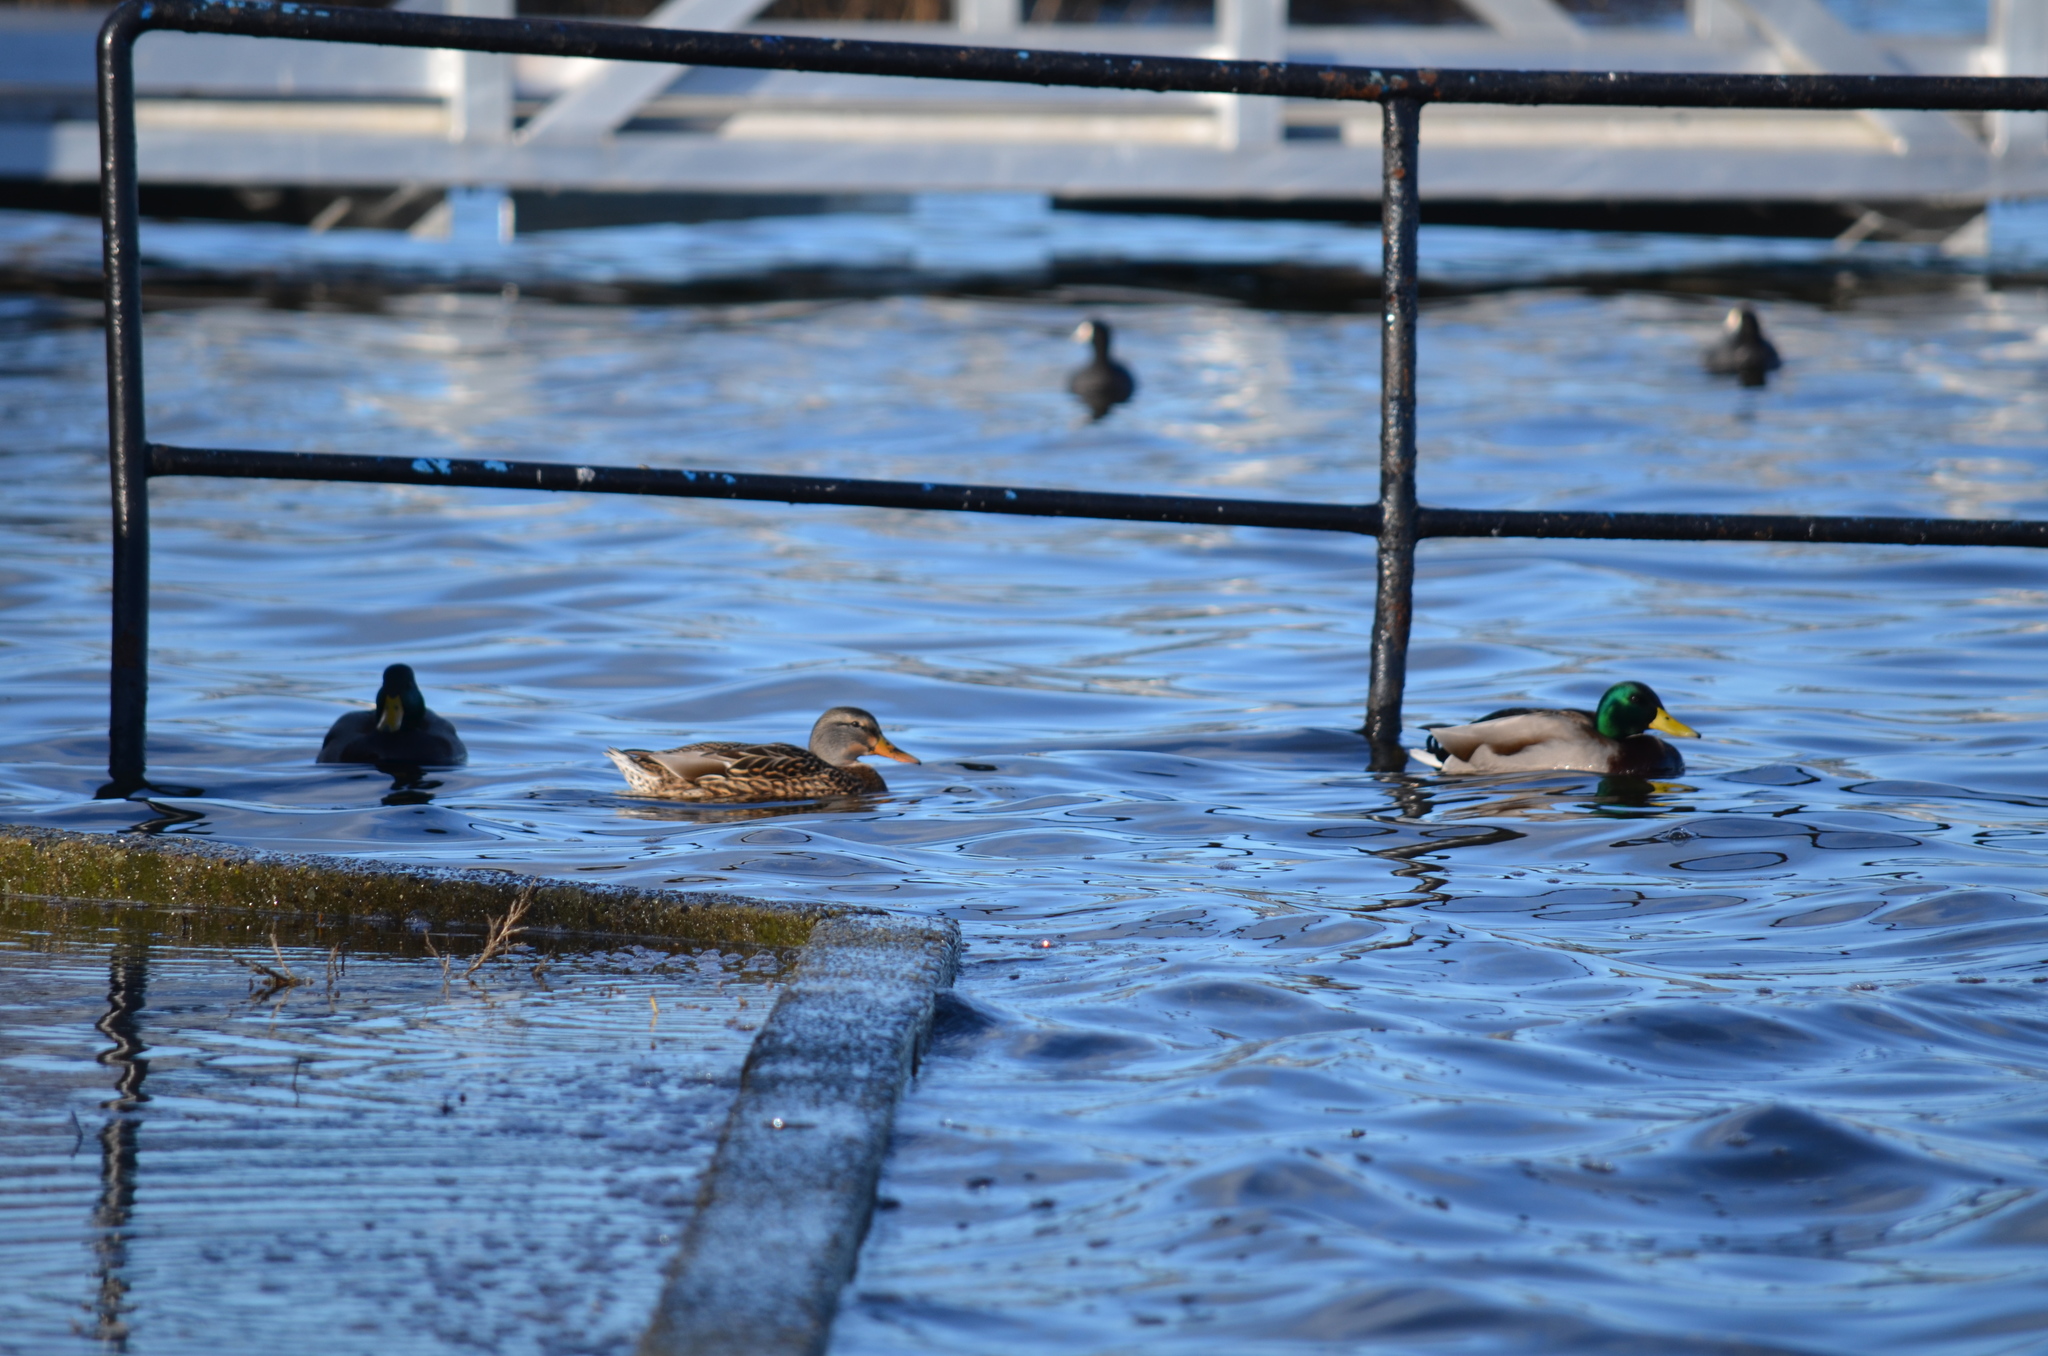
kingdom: Animalia
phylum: Chordata
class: Aves
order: Anseriformes
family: Anatidae
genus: Anas
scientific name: Anas platyrhynchos
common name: Mallard
